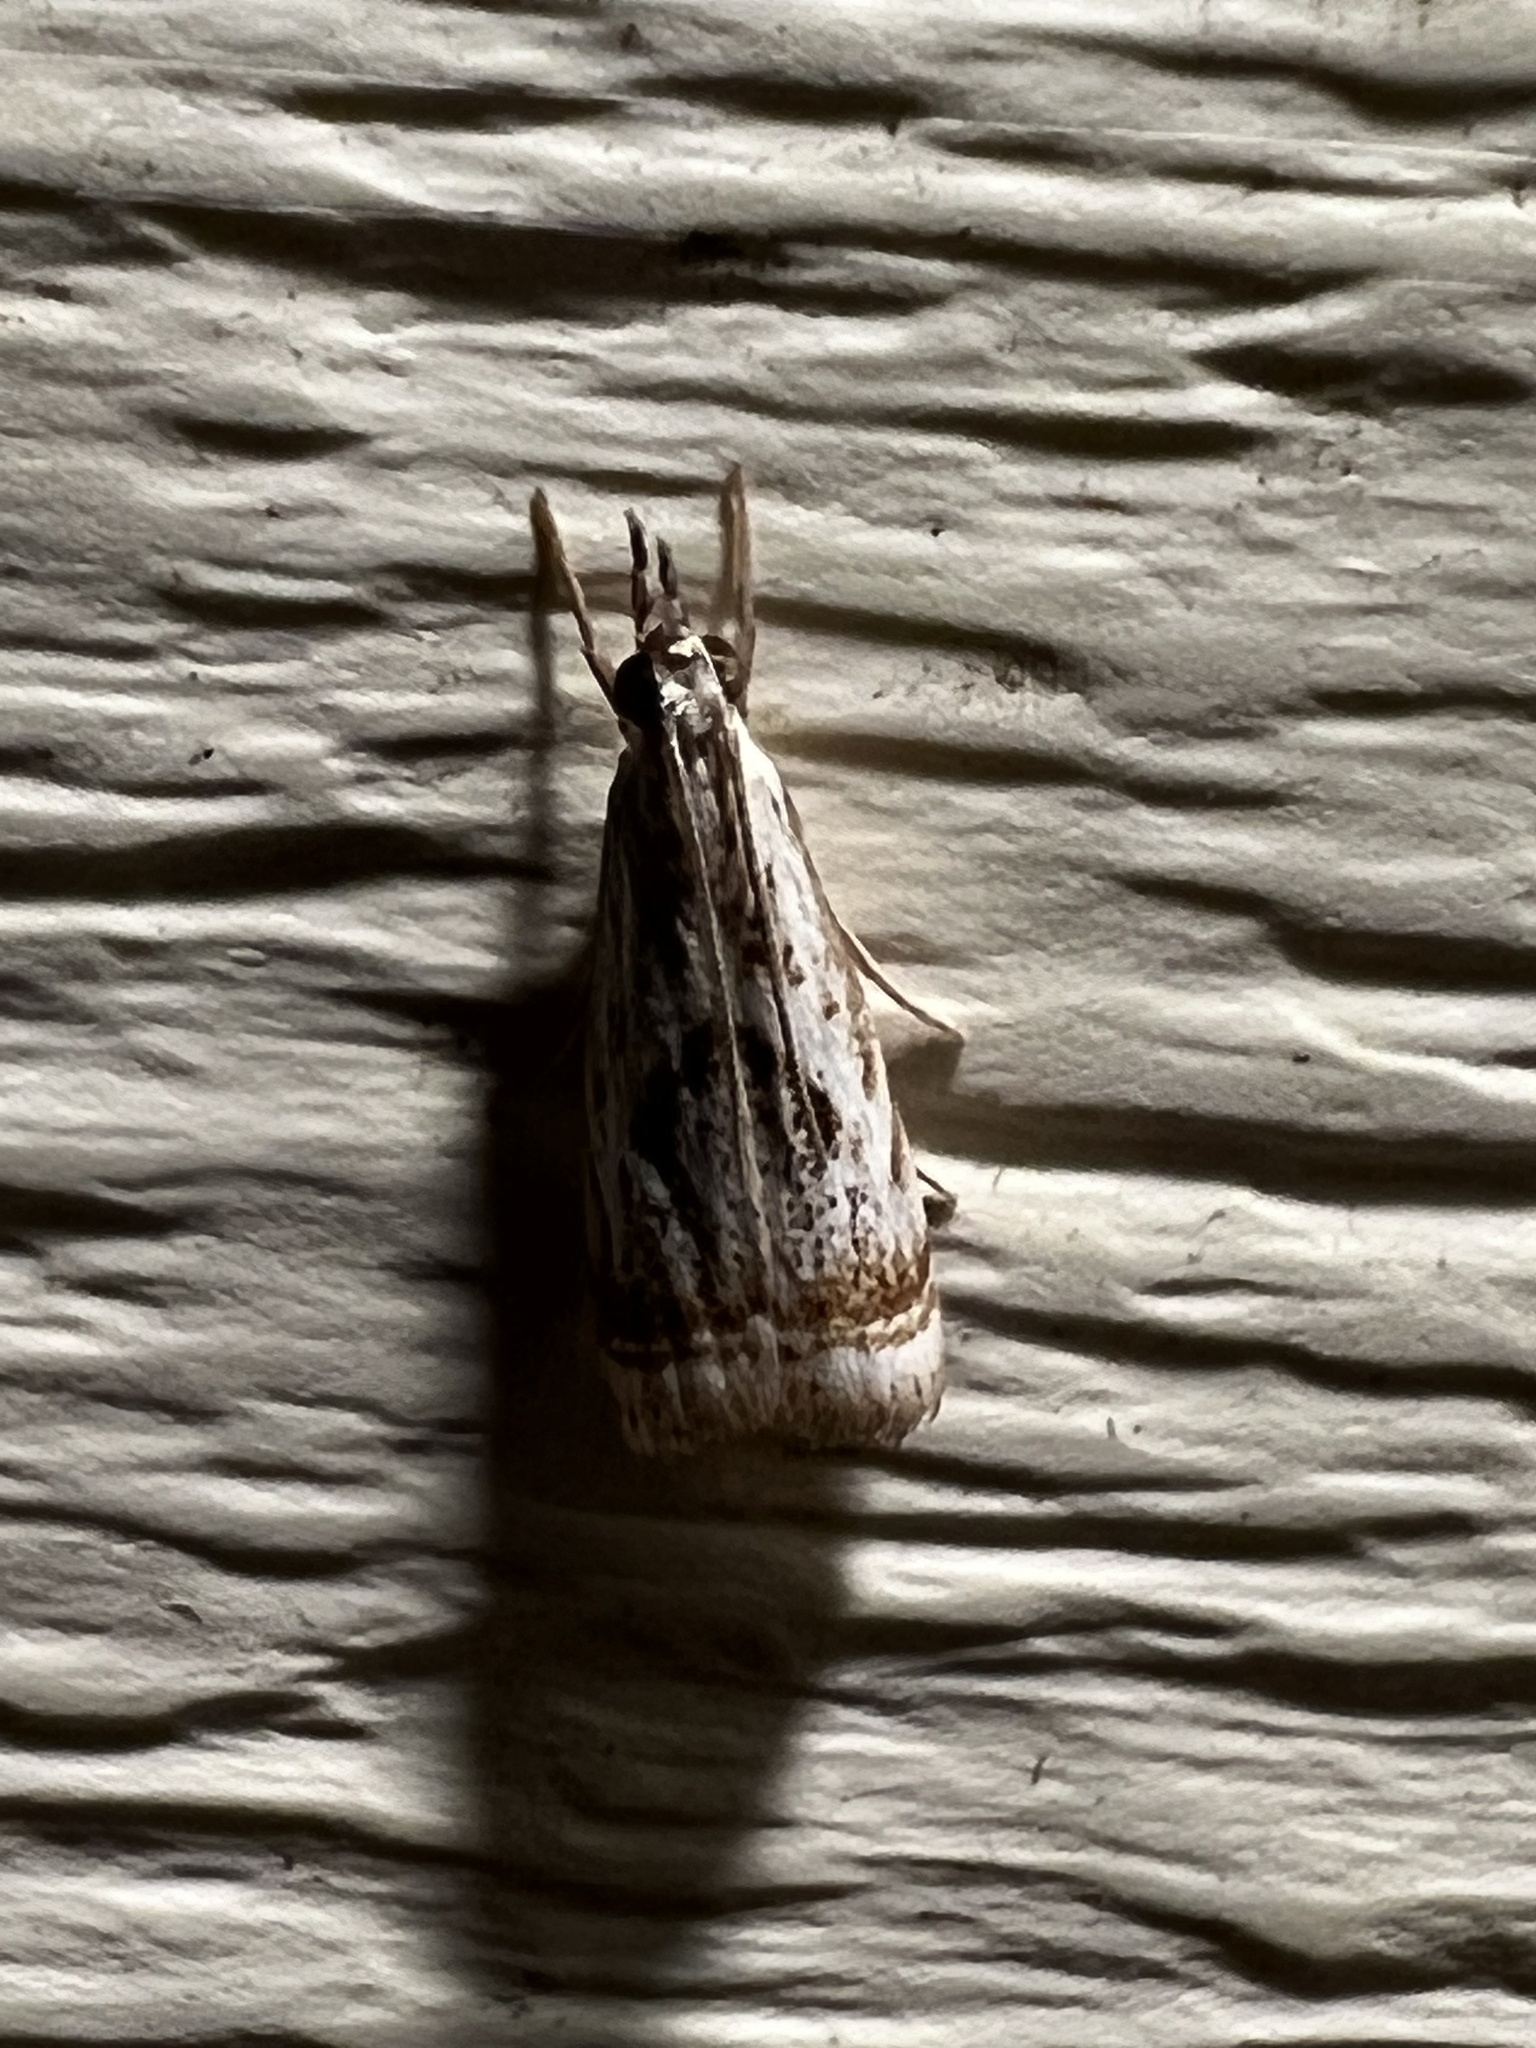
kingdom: Animalia
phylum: Arthropoda
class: Insecta
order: Lepidoptera
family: Crambidae
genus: Microcrambus
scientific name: Microcrambus elegans
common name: Elegant grass-veneer
